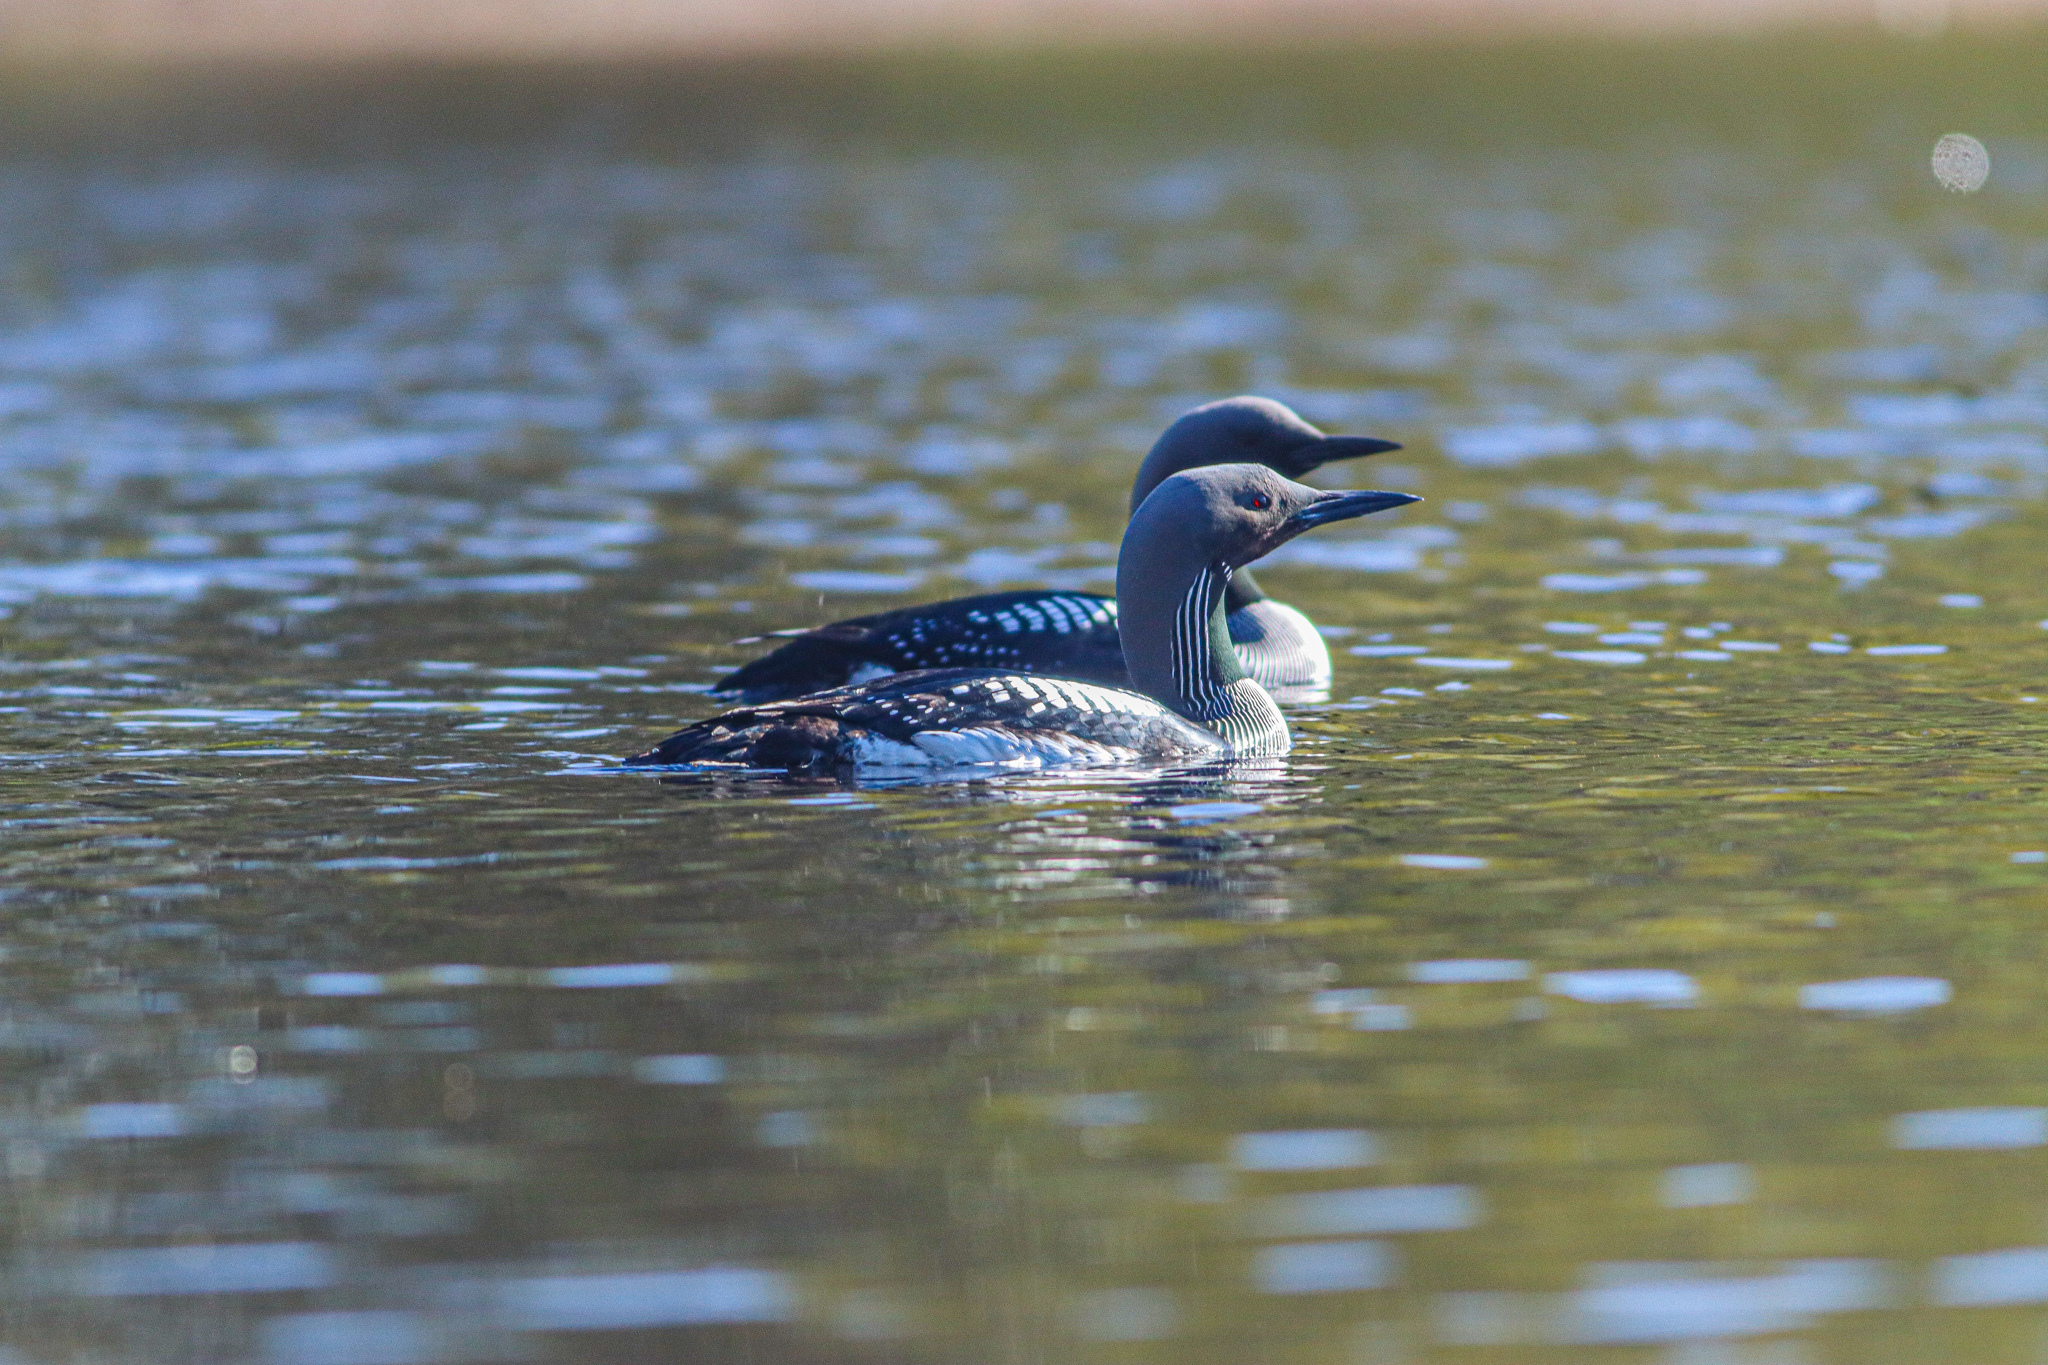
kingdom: Animalia
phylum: Chordata
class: Aves
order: Gaviiformes
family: Gaviidae
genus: Gavia
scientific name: Gavia arctica
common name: Black-throated loon
